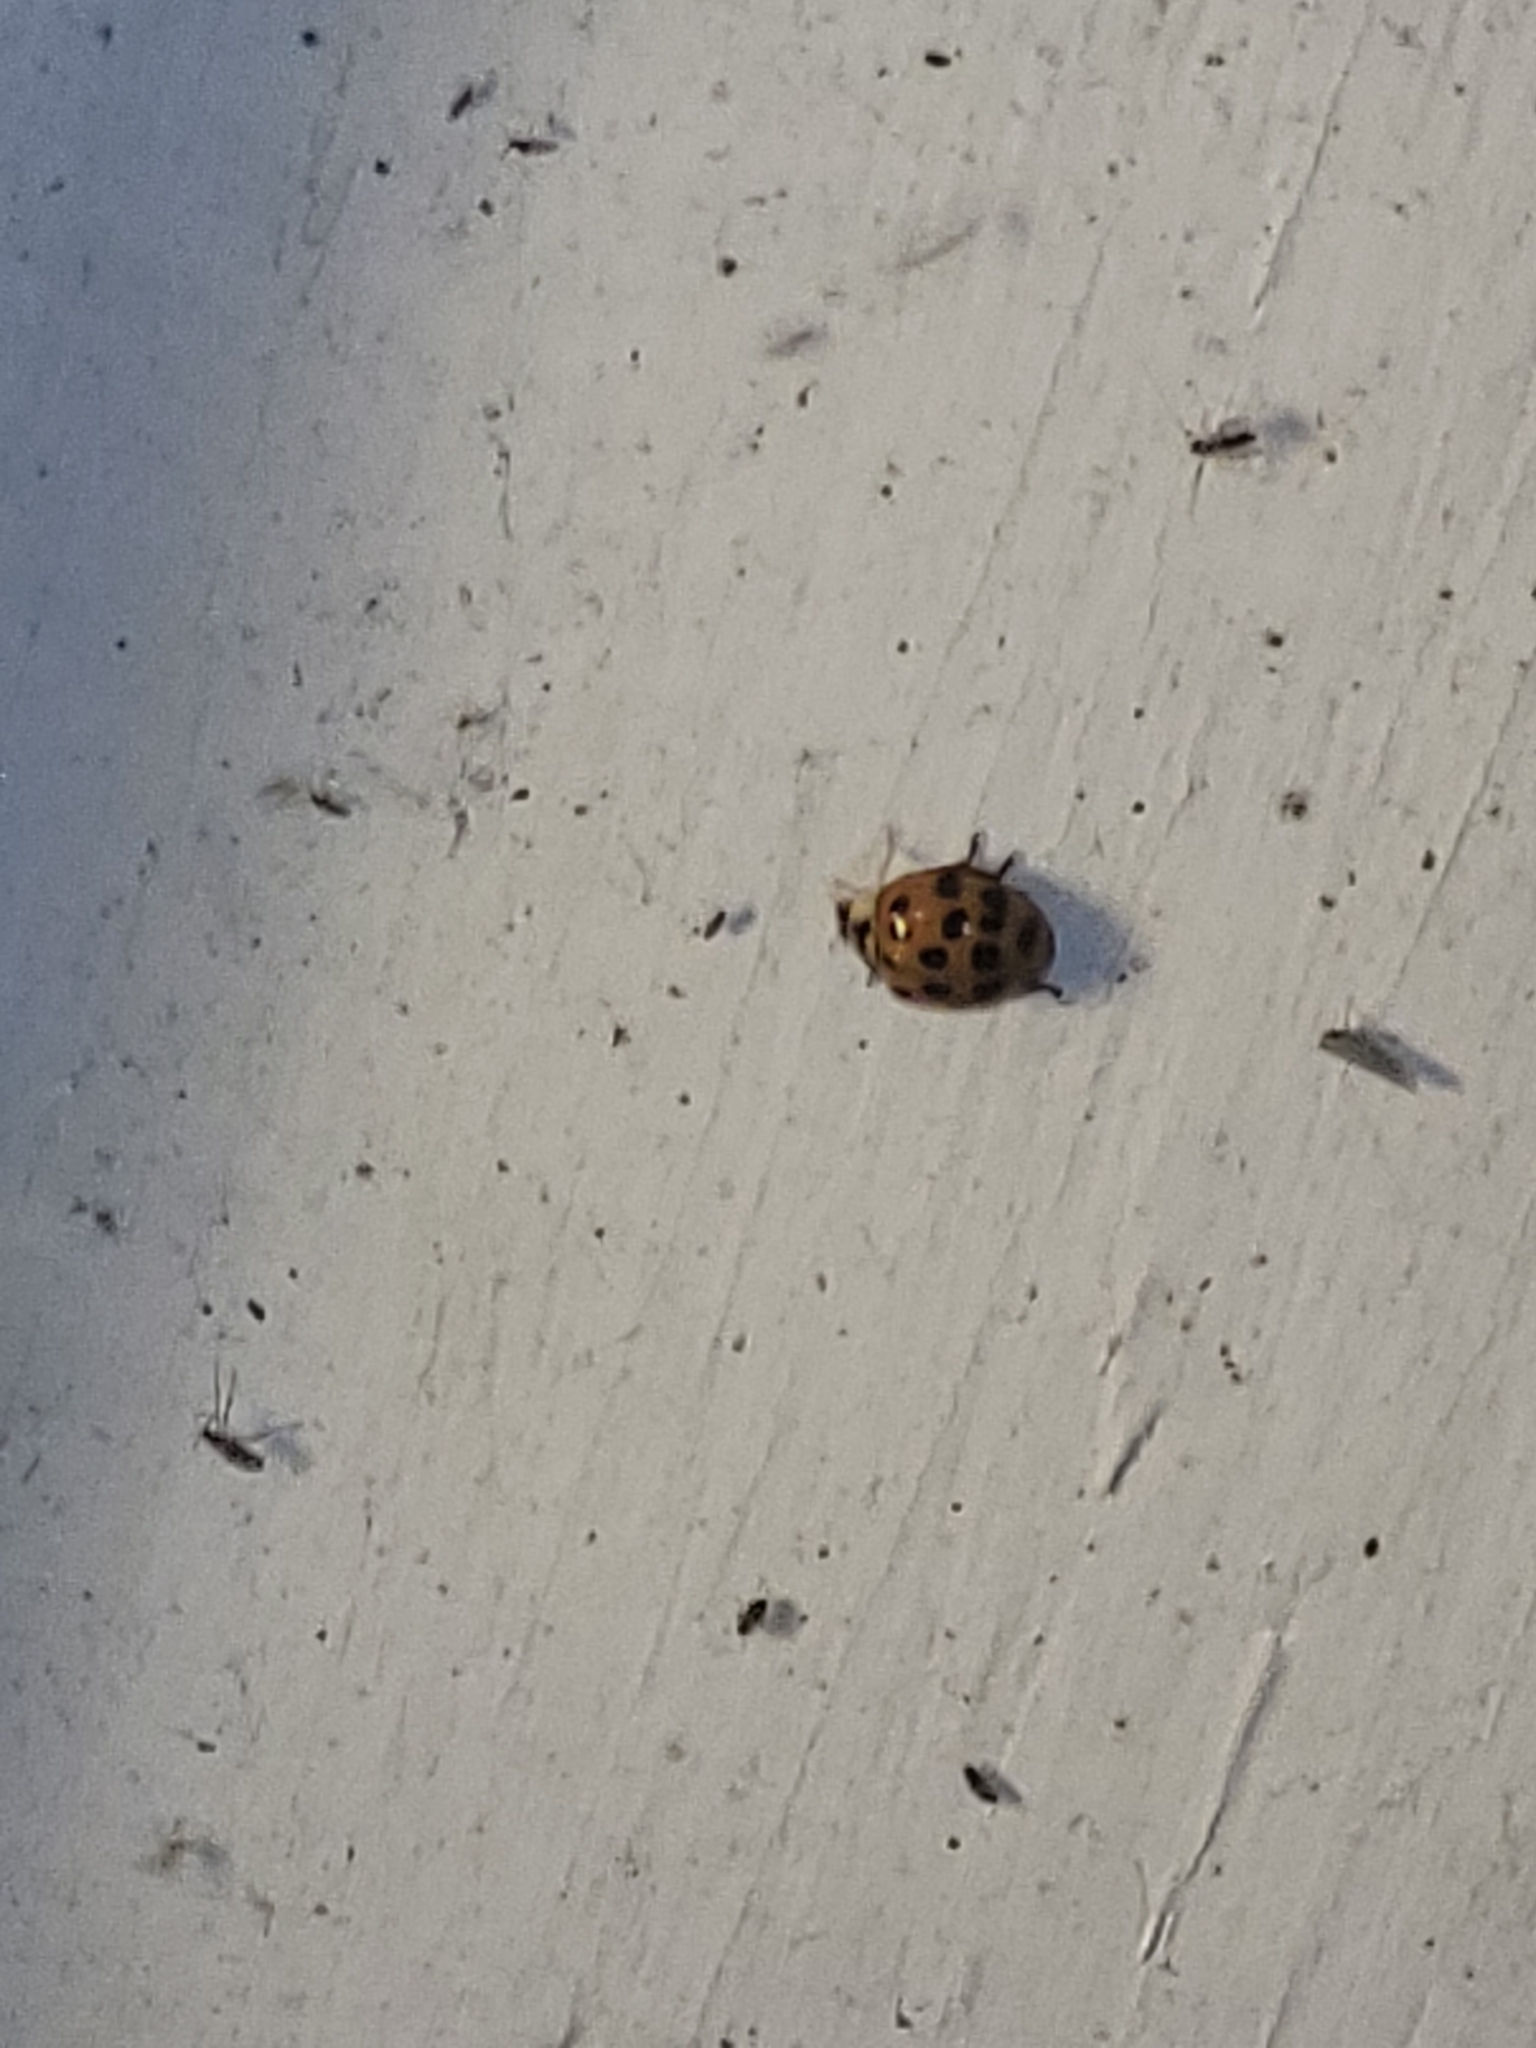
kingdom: Animalia
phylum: Arthropoda
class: Insecta
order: Coleoptera
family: Coccinellidae
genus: Harmonia
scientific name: Harmonia axyridis
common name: Harlequin ladybird
